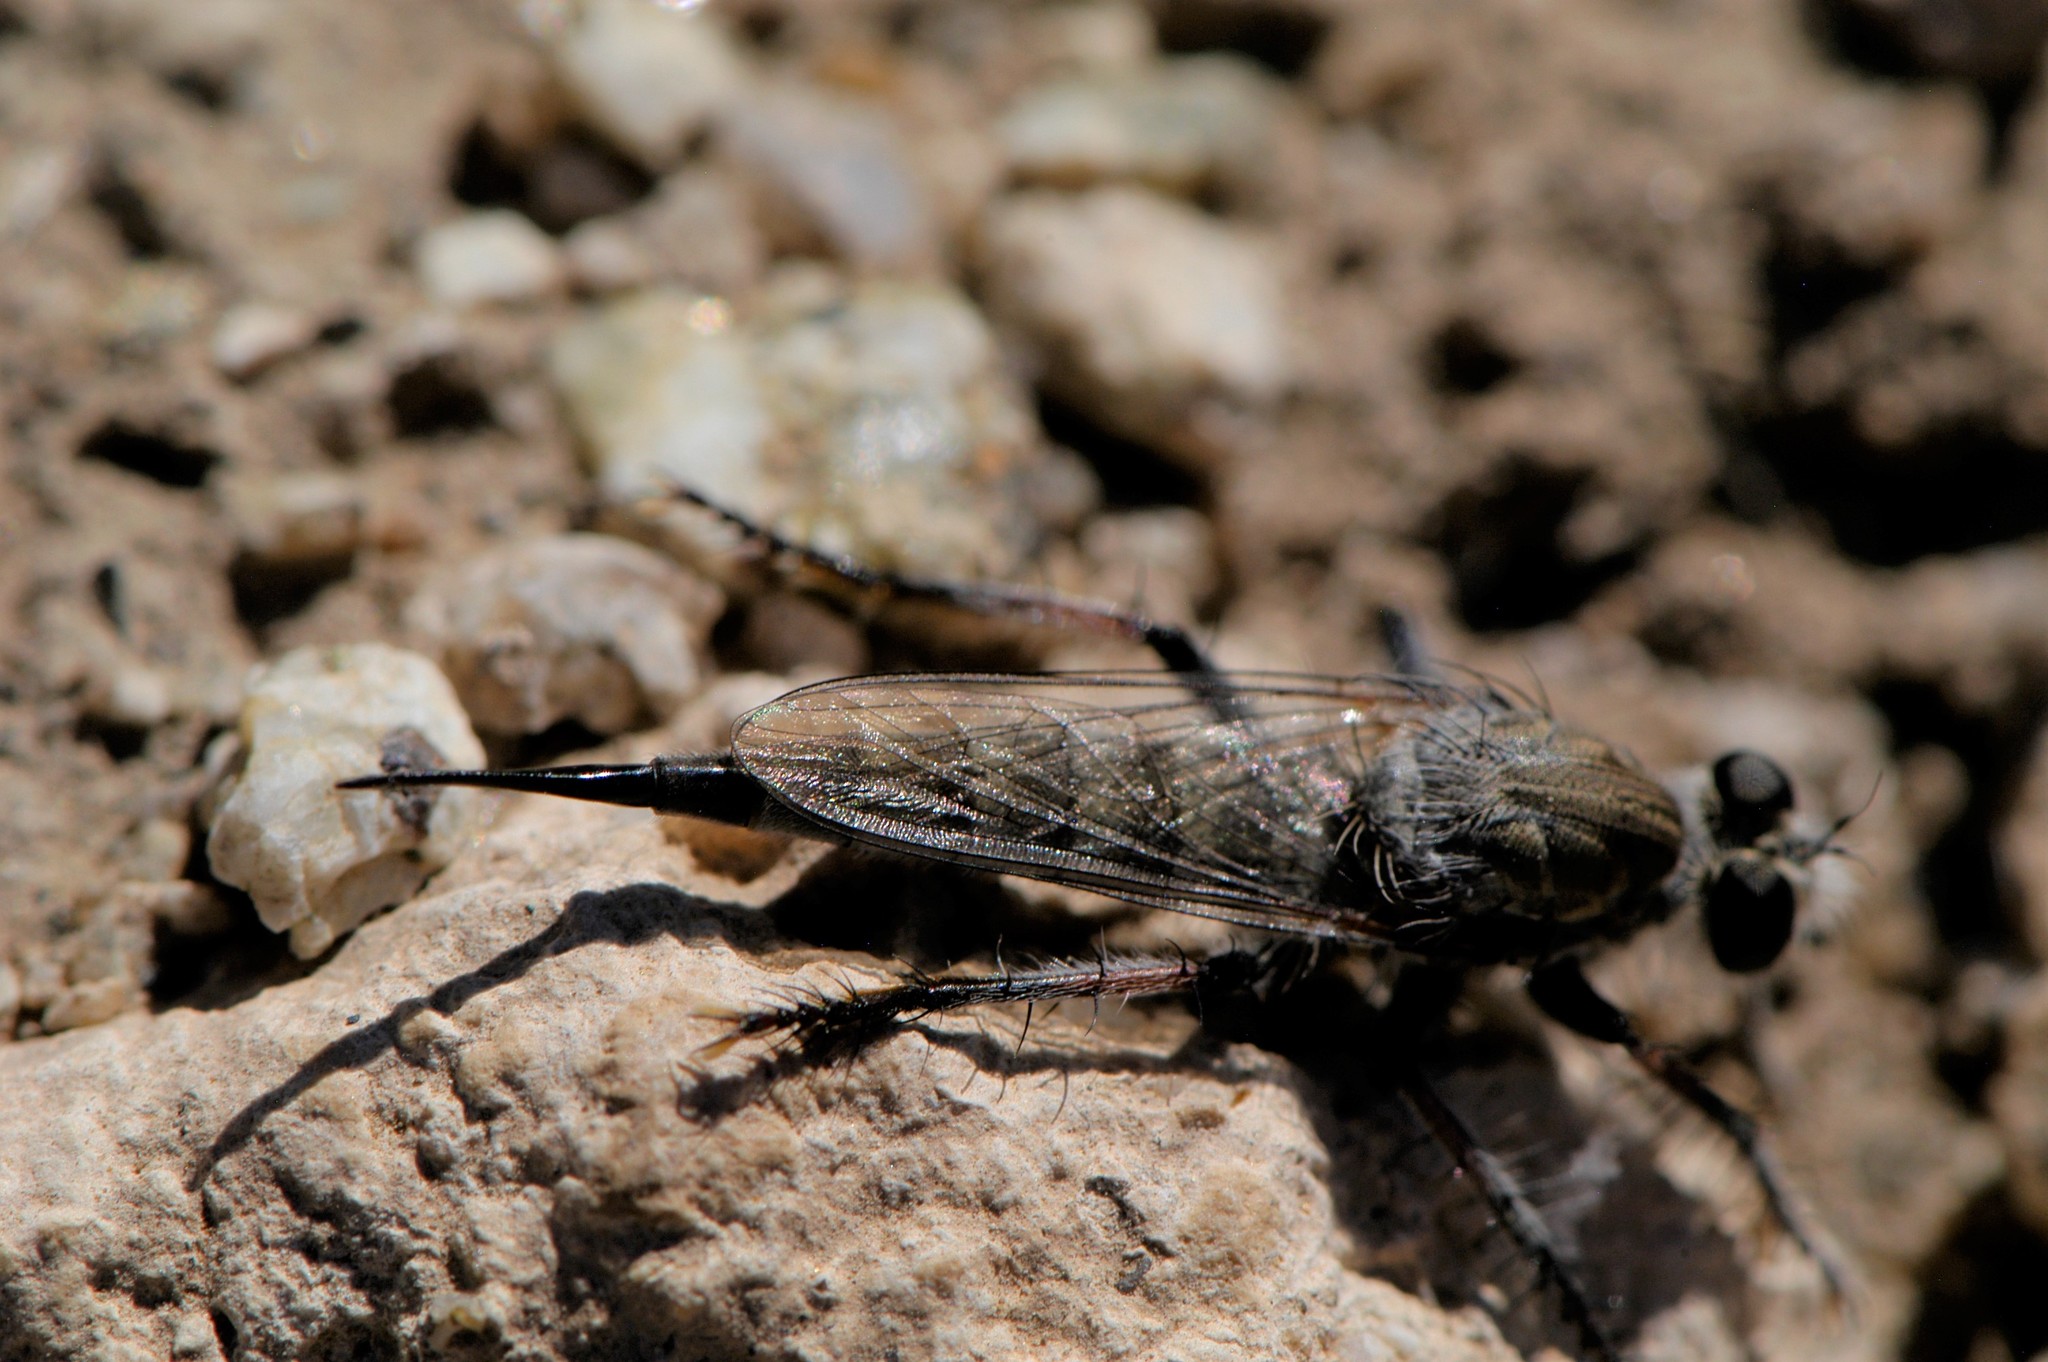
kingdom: Animalia
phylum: Arthropoda
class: Insecta
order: Diptera
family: Asilidae
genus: Efferia
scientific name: Efferia
